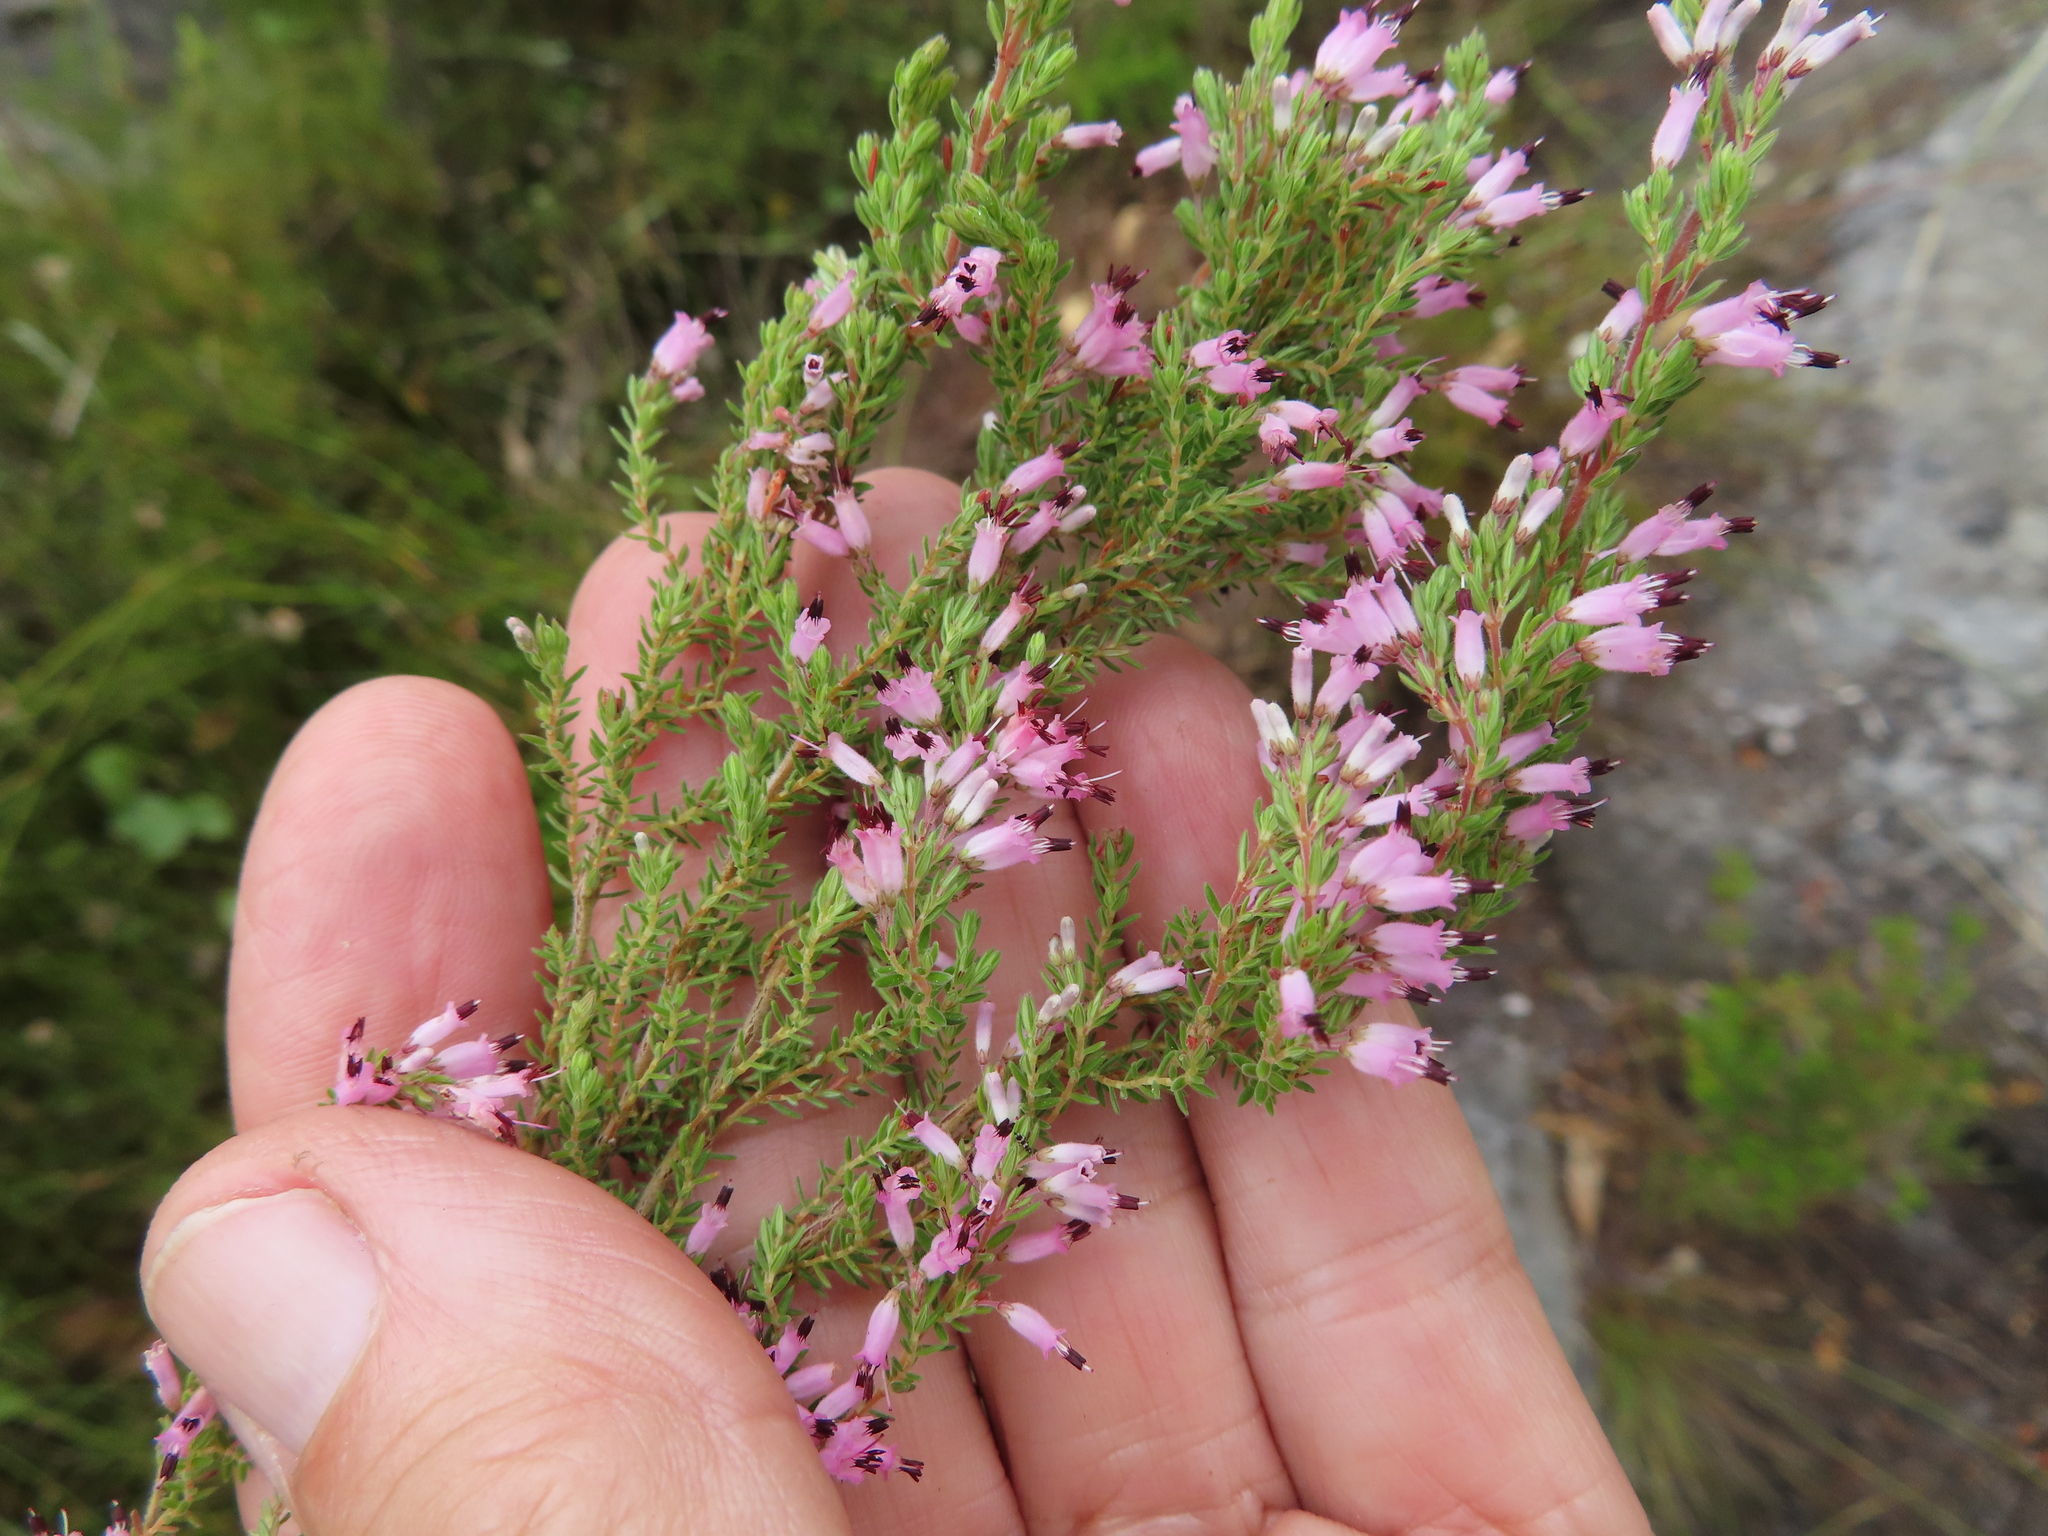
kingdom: Plantae
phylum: Tracheophyta
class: Magnoliopsida
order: Ericales
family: Ericaceae
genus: Erica
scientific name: Erica longimontana
